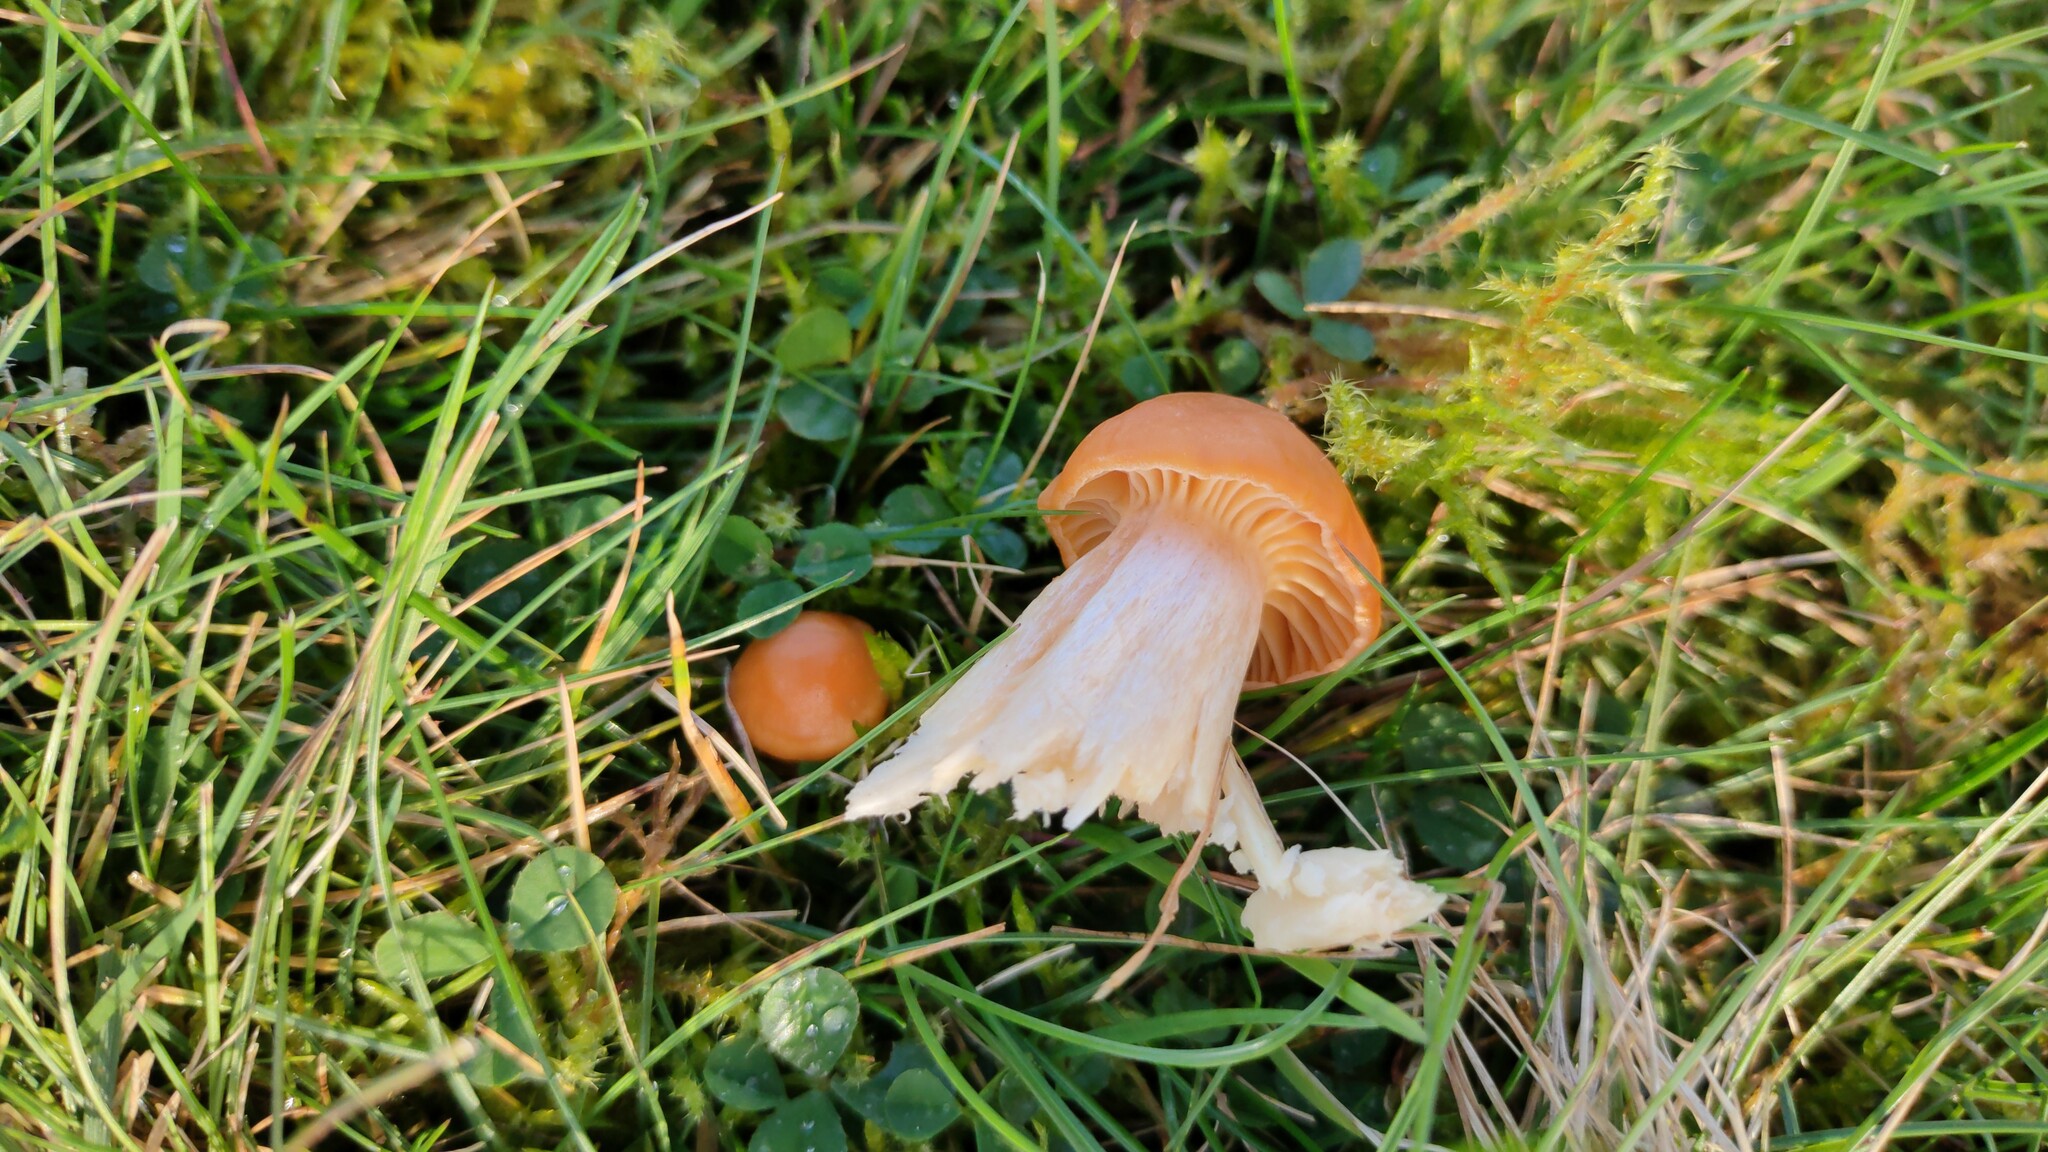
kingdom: Fungi
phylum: Basidiomycota
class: Agaricomycetes
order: Agaricales
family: Hygrophoraceae
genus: Cuphophyllus
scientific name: Cuphophyllus pratensis
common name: Meadow waxcap
